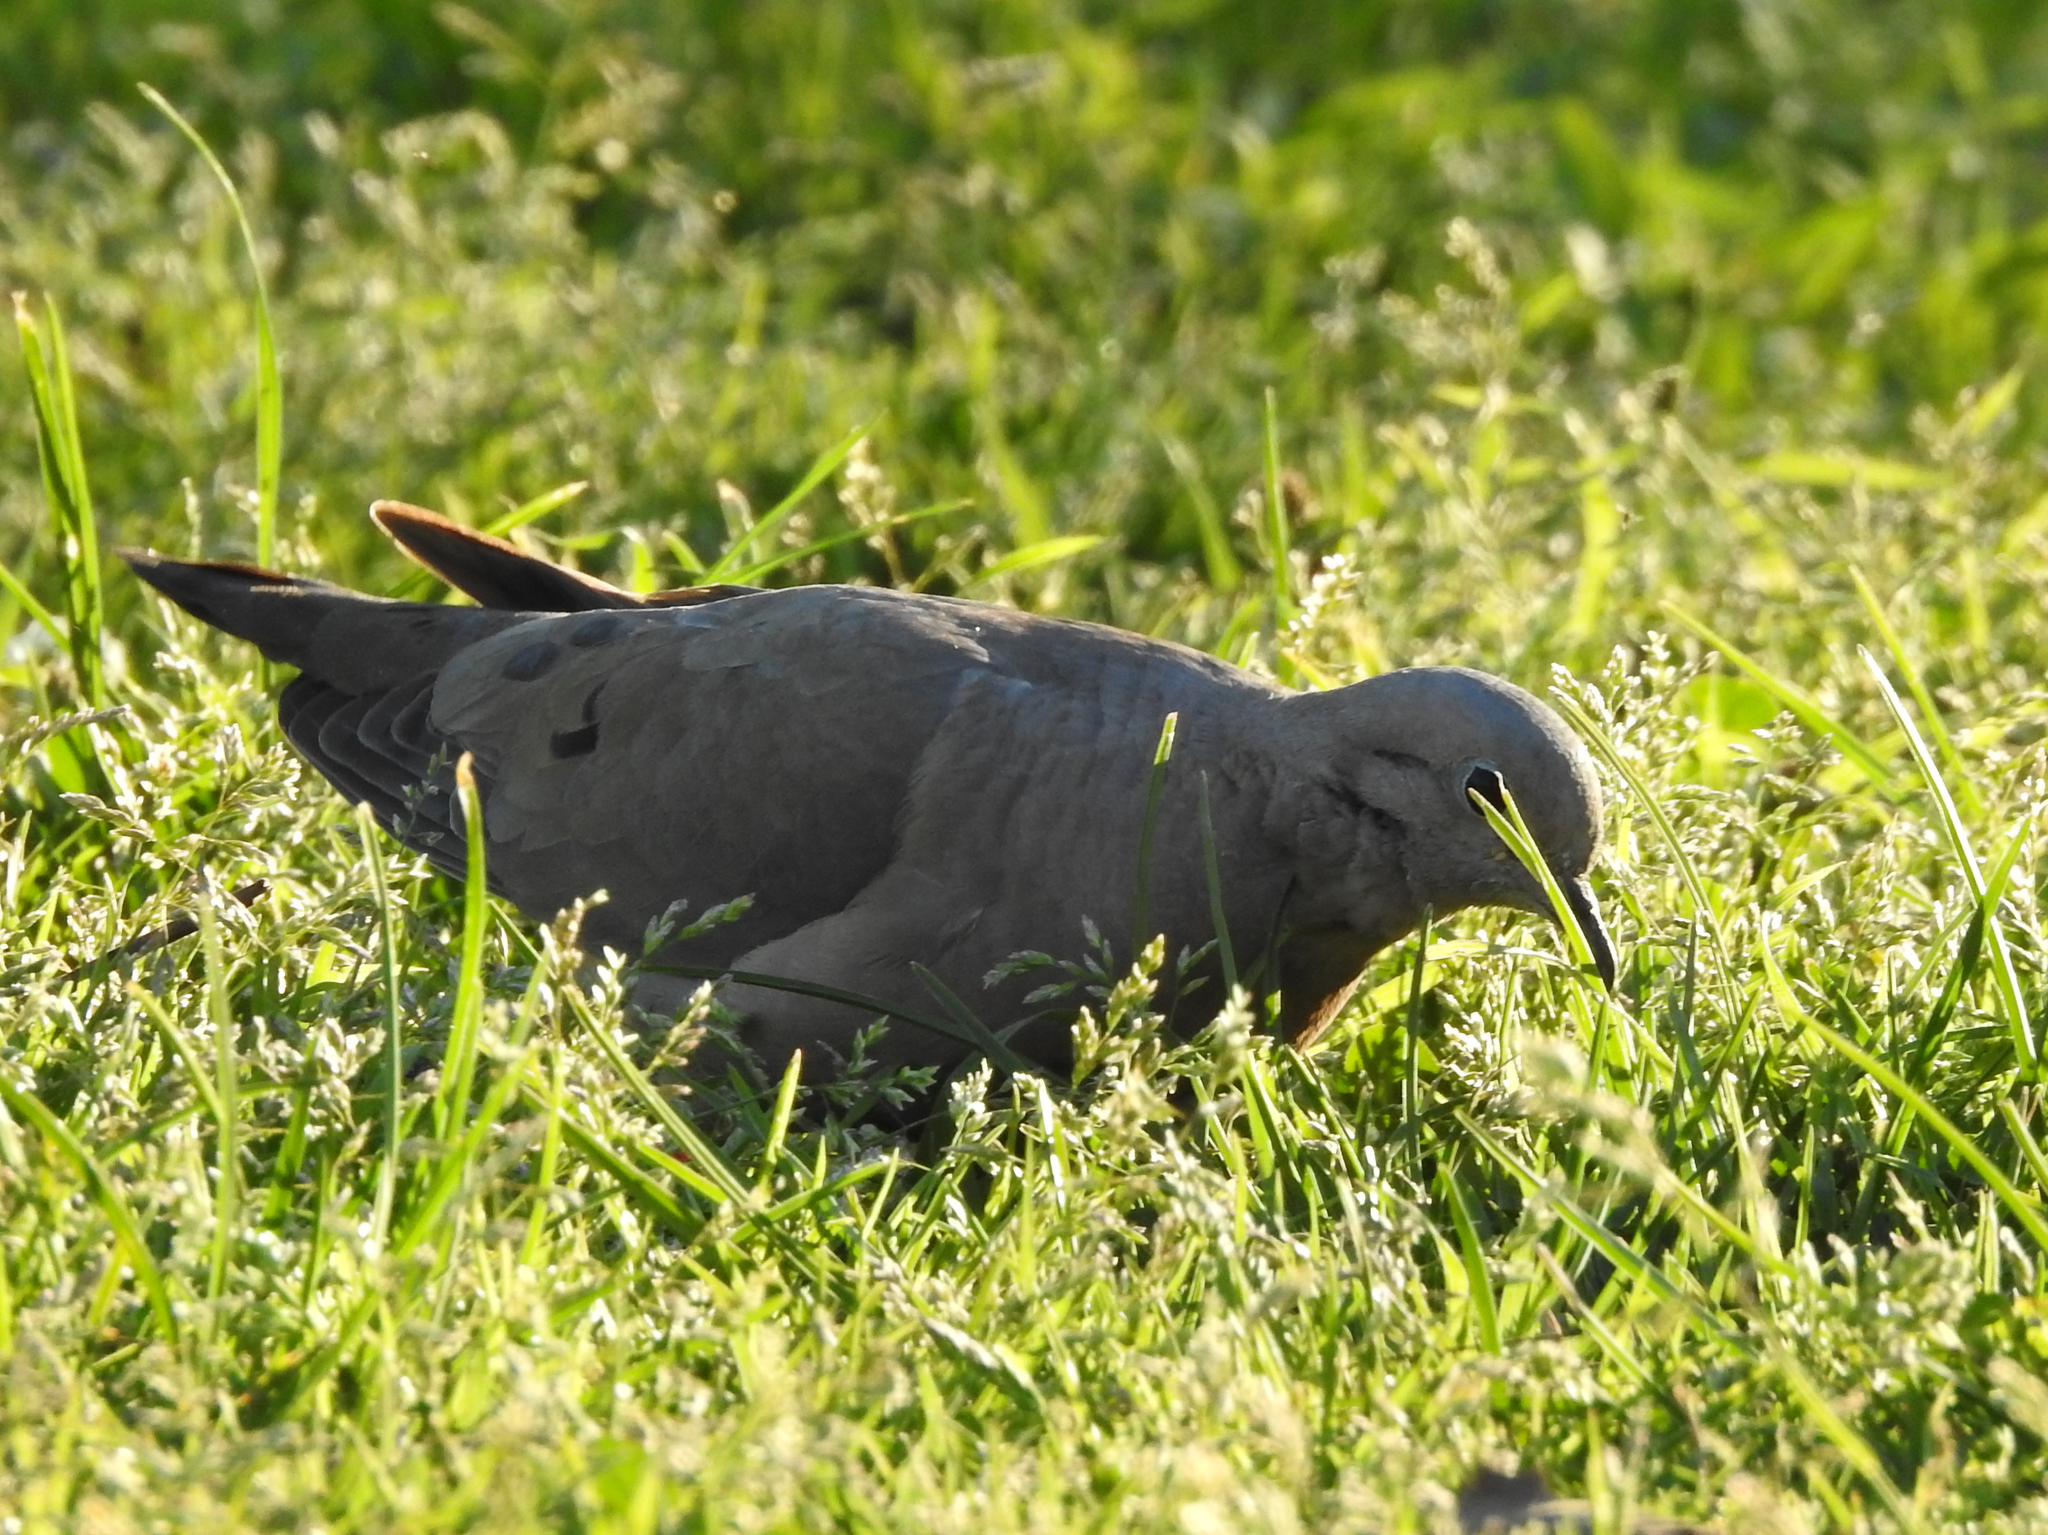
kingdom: Animalia
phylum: Chordata
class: Aves
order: Columbiformes
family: Columbidae
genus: Zenaida
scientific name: Zenaida auriculata
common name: Eared dove
